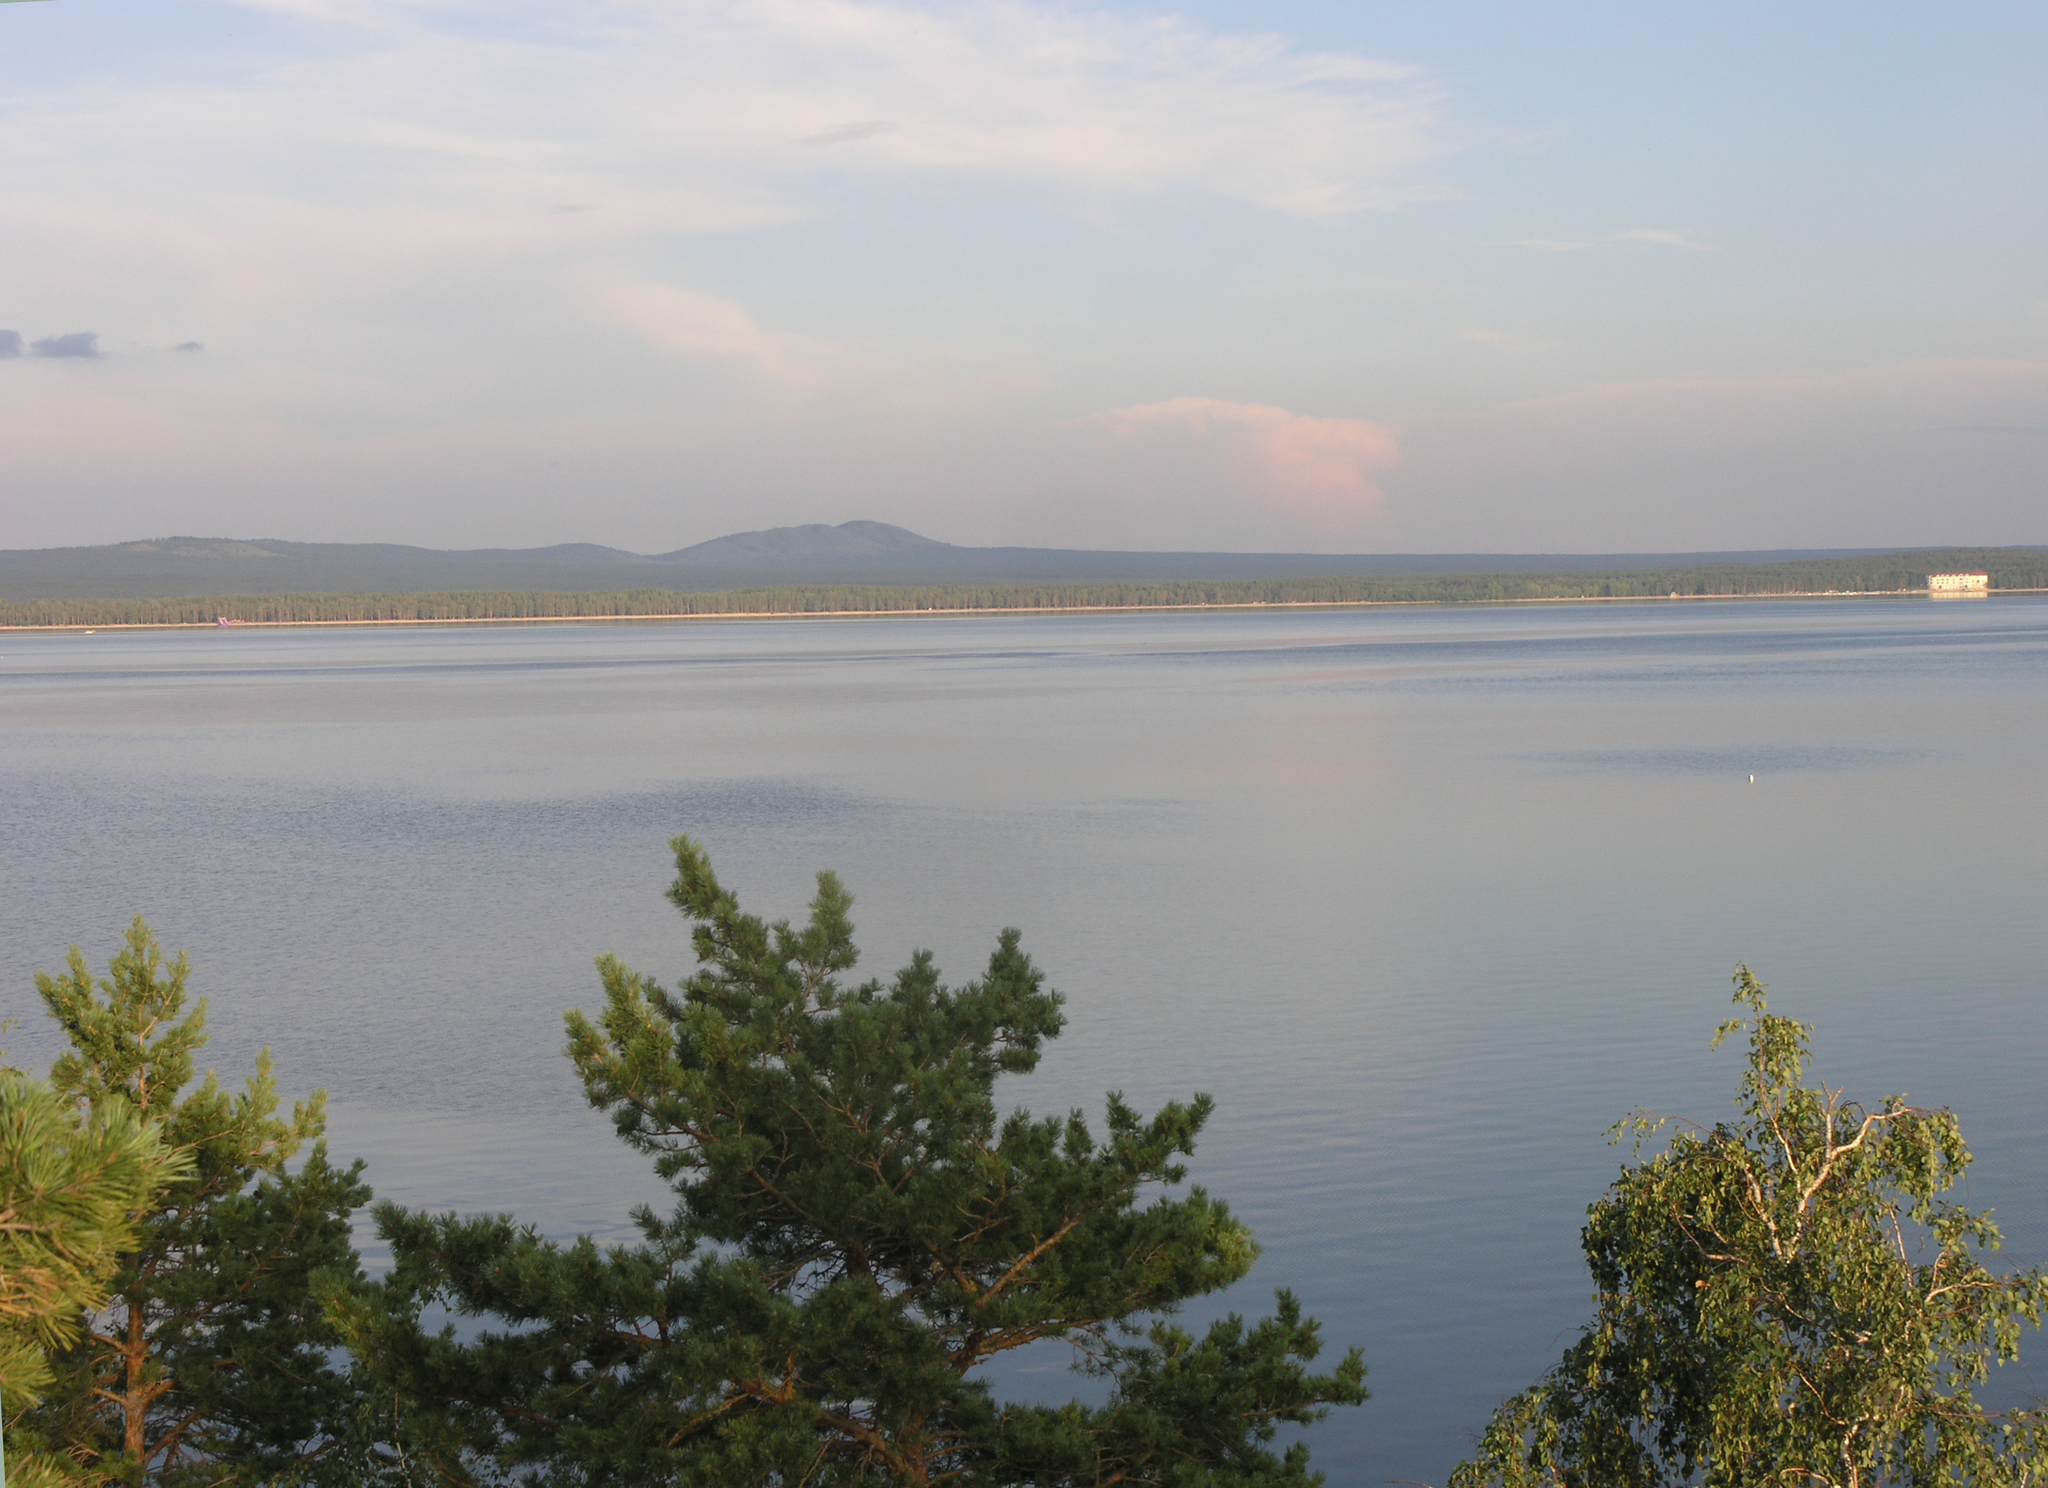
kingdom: Plantae
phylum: Tracheophyta
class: Pinopsida
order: Pinales
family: Pinaceae
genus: Pinus
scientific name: Pinus sylvestris
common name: Scots pine
